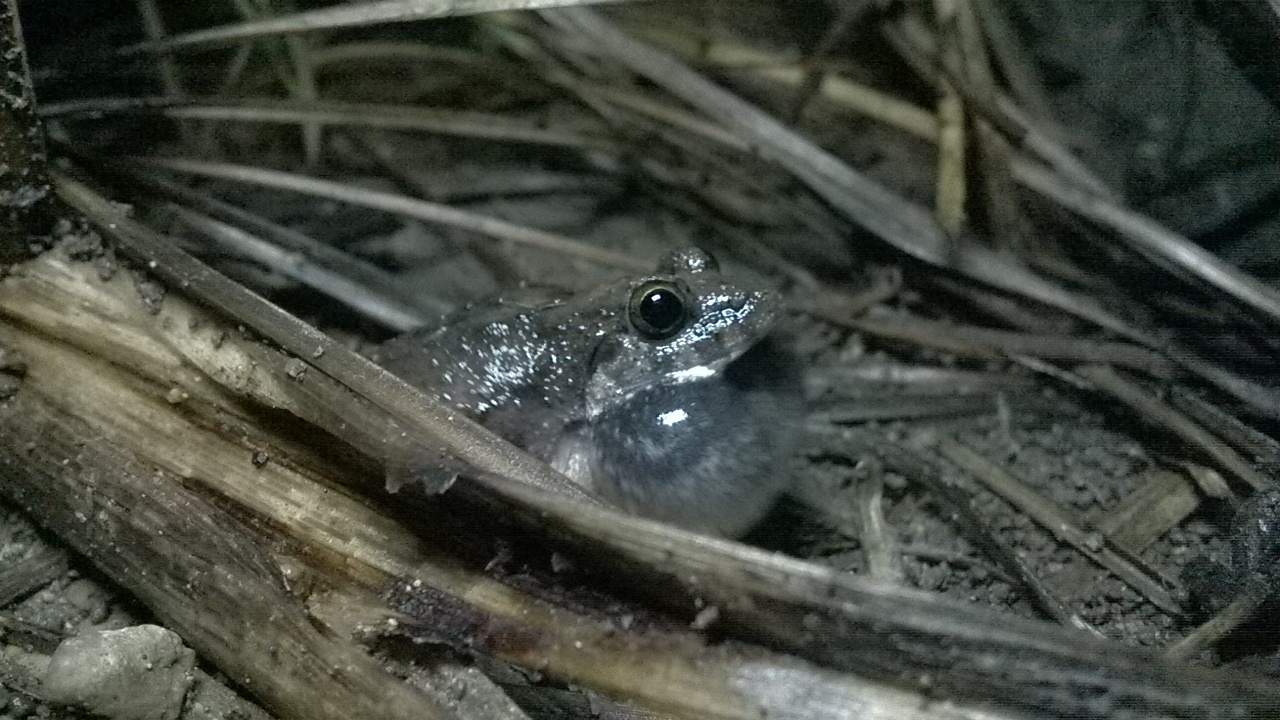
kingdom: Animalia
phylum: Chordata
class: Amphibia
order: Anura
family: Dicroglossidae
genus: Sphaerotheca
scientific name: Sphaerotheca maskeyi
